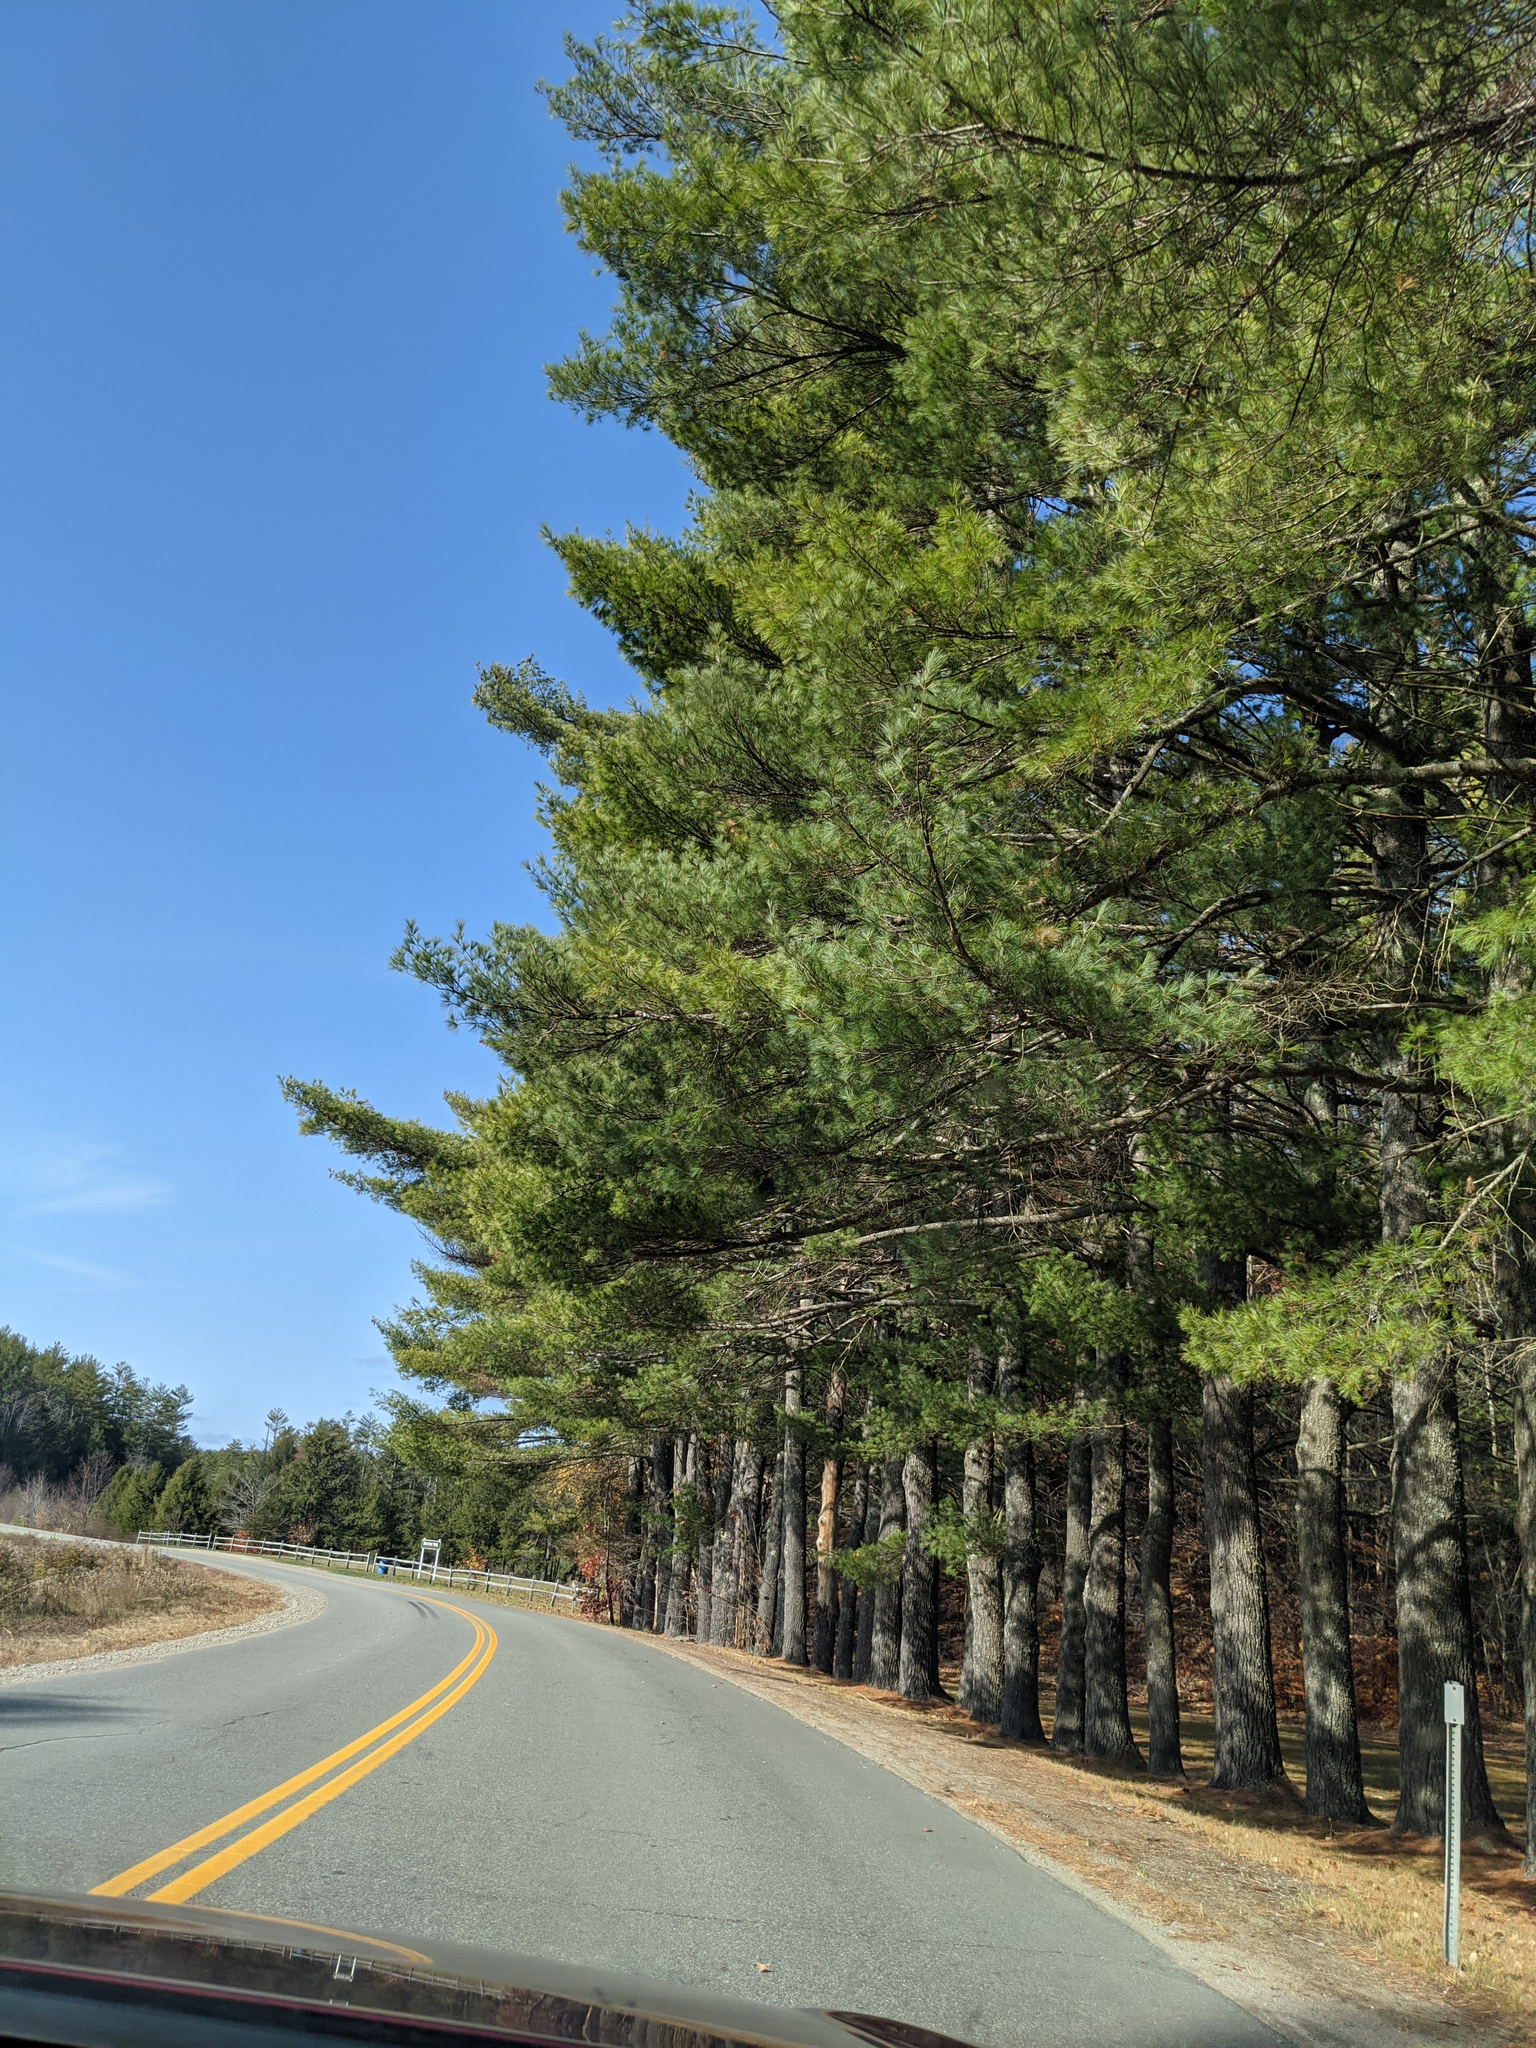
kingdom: Plantae
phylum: Tracheophyta
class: Pinopsida
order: Pinales
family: Pinaceae
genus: Pinus
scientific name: Pinus strobus
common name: Weymouth pine
